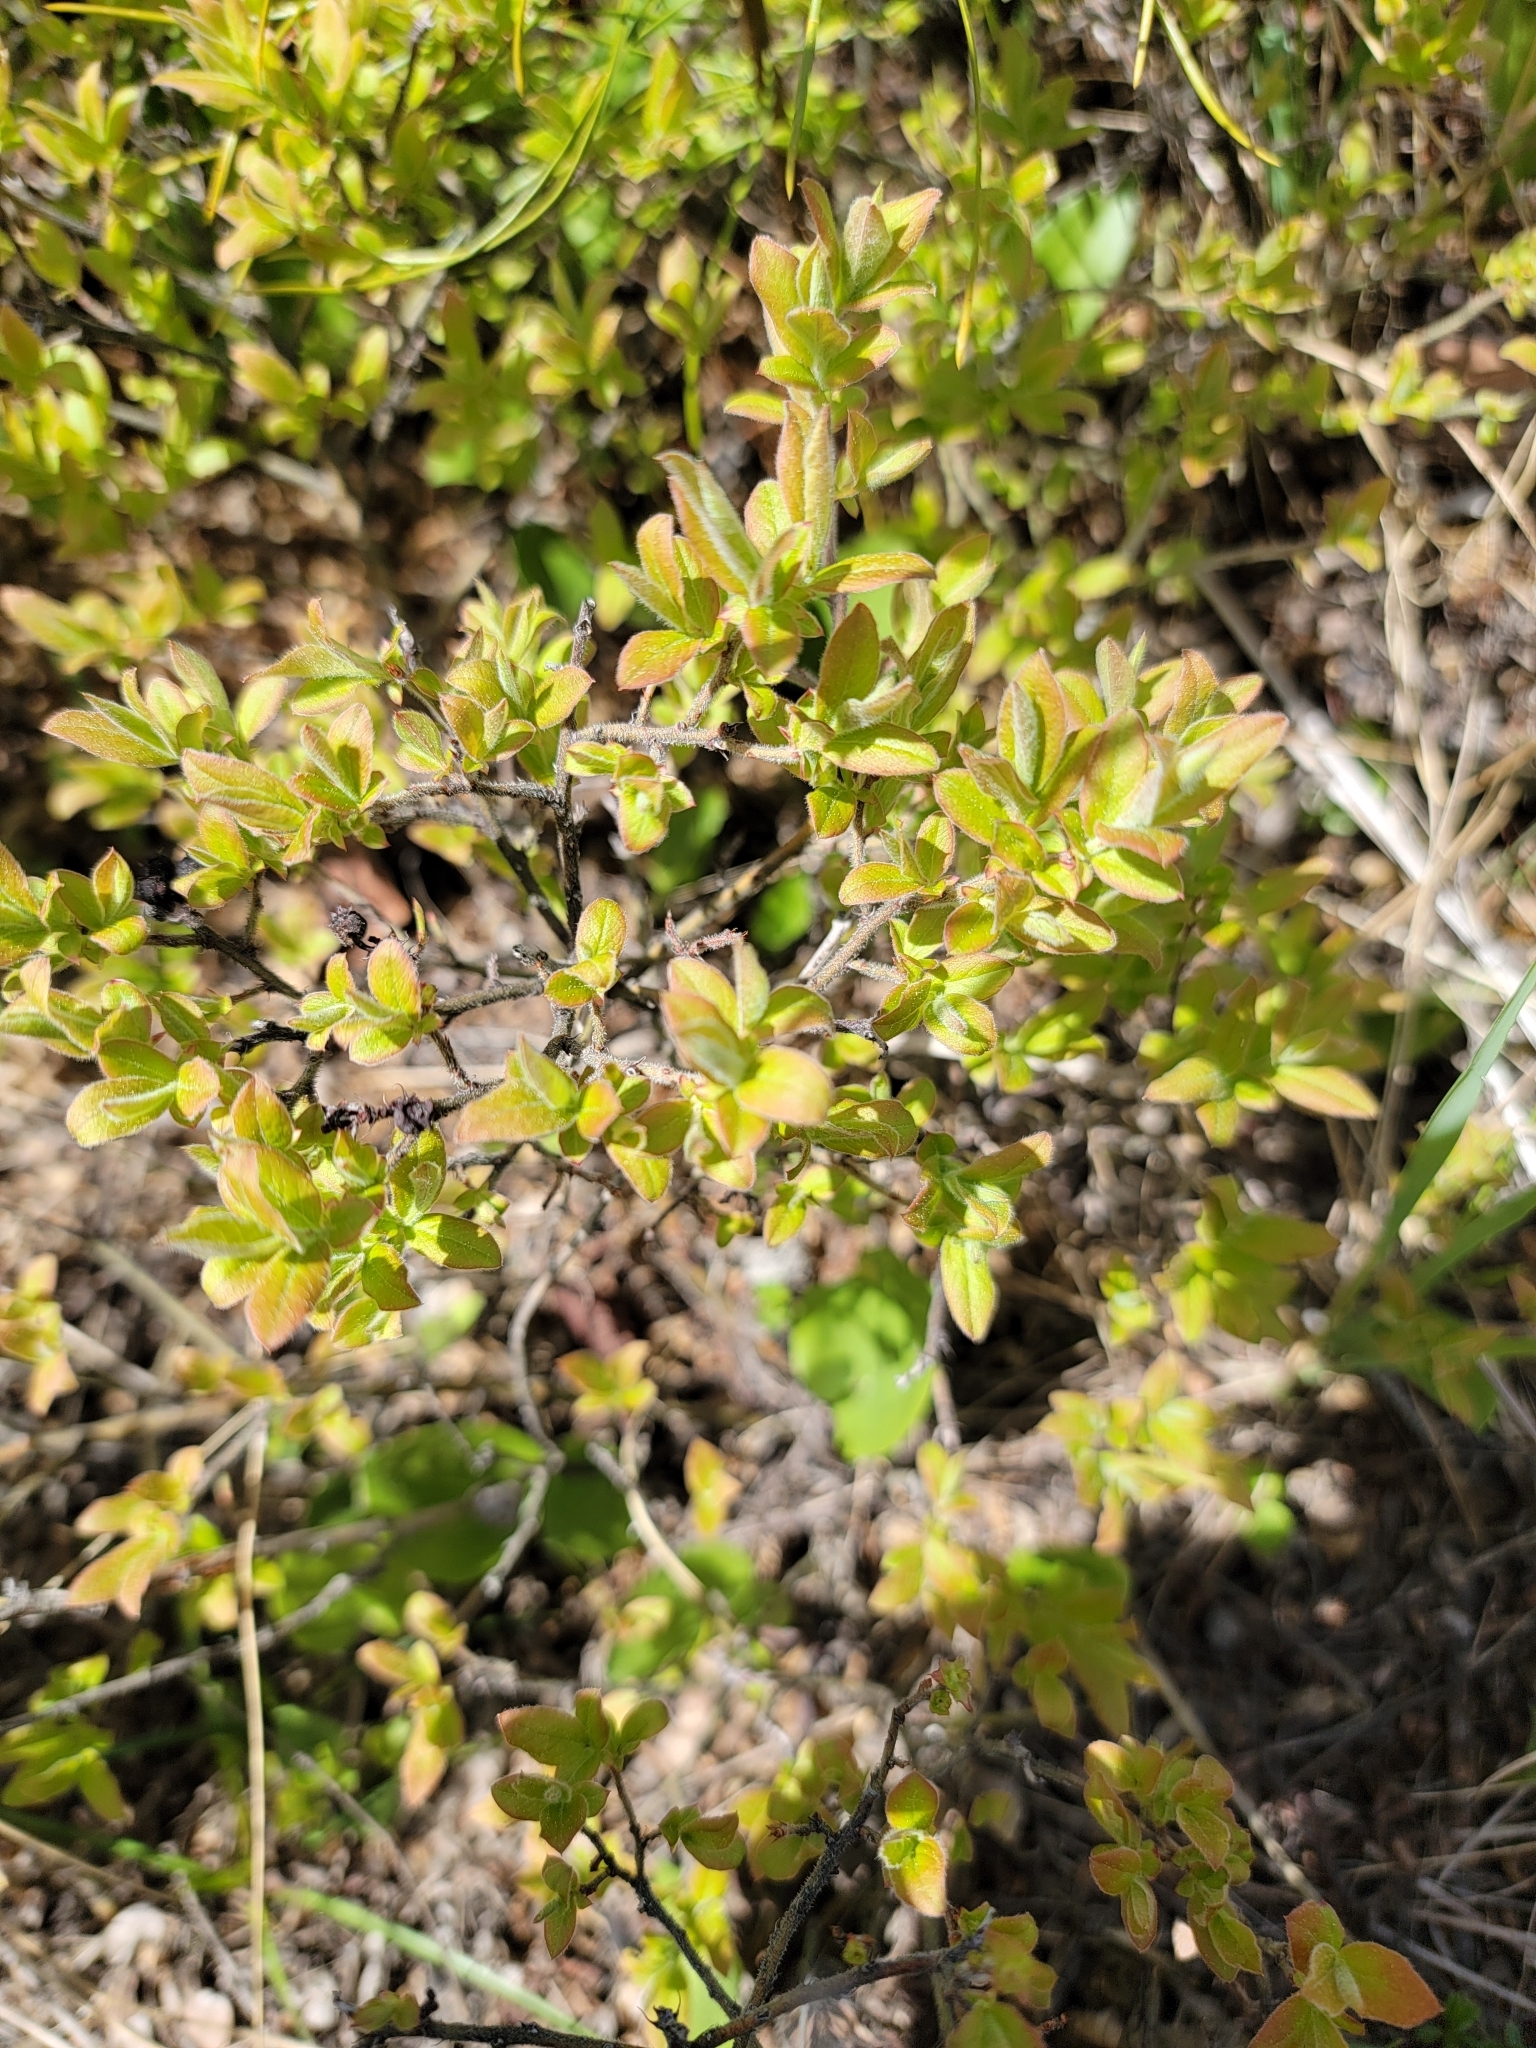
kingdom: Plantae
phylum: Tracheophyta
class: Magnoliopsida
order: Ericales
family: Ericaceae
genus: Vaccinium
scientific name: Vaccinium myrtilloides
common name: Canada blueberry
